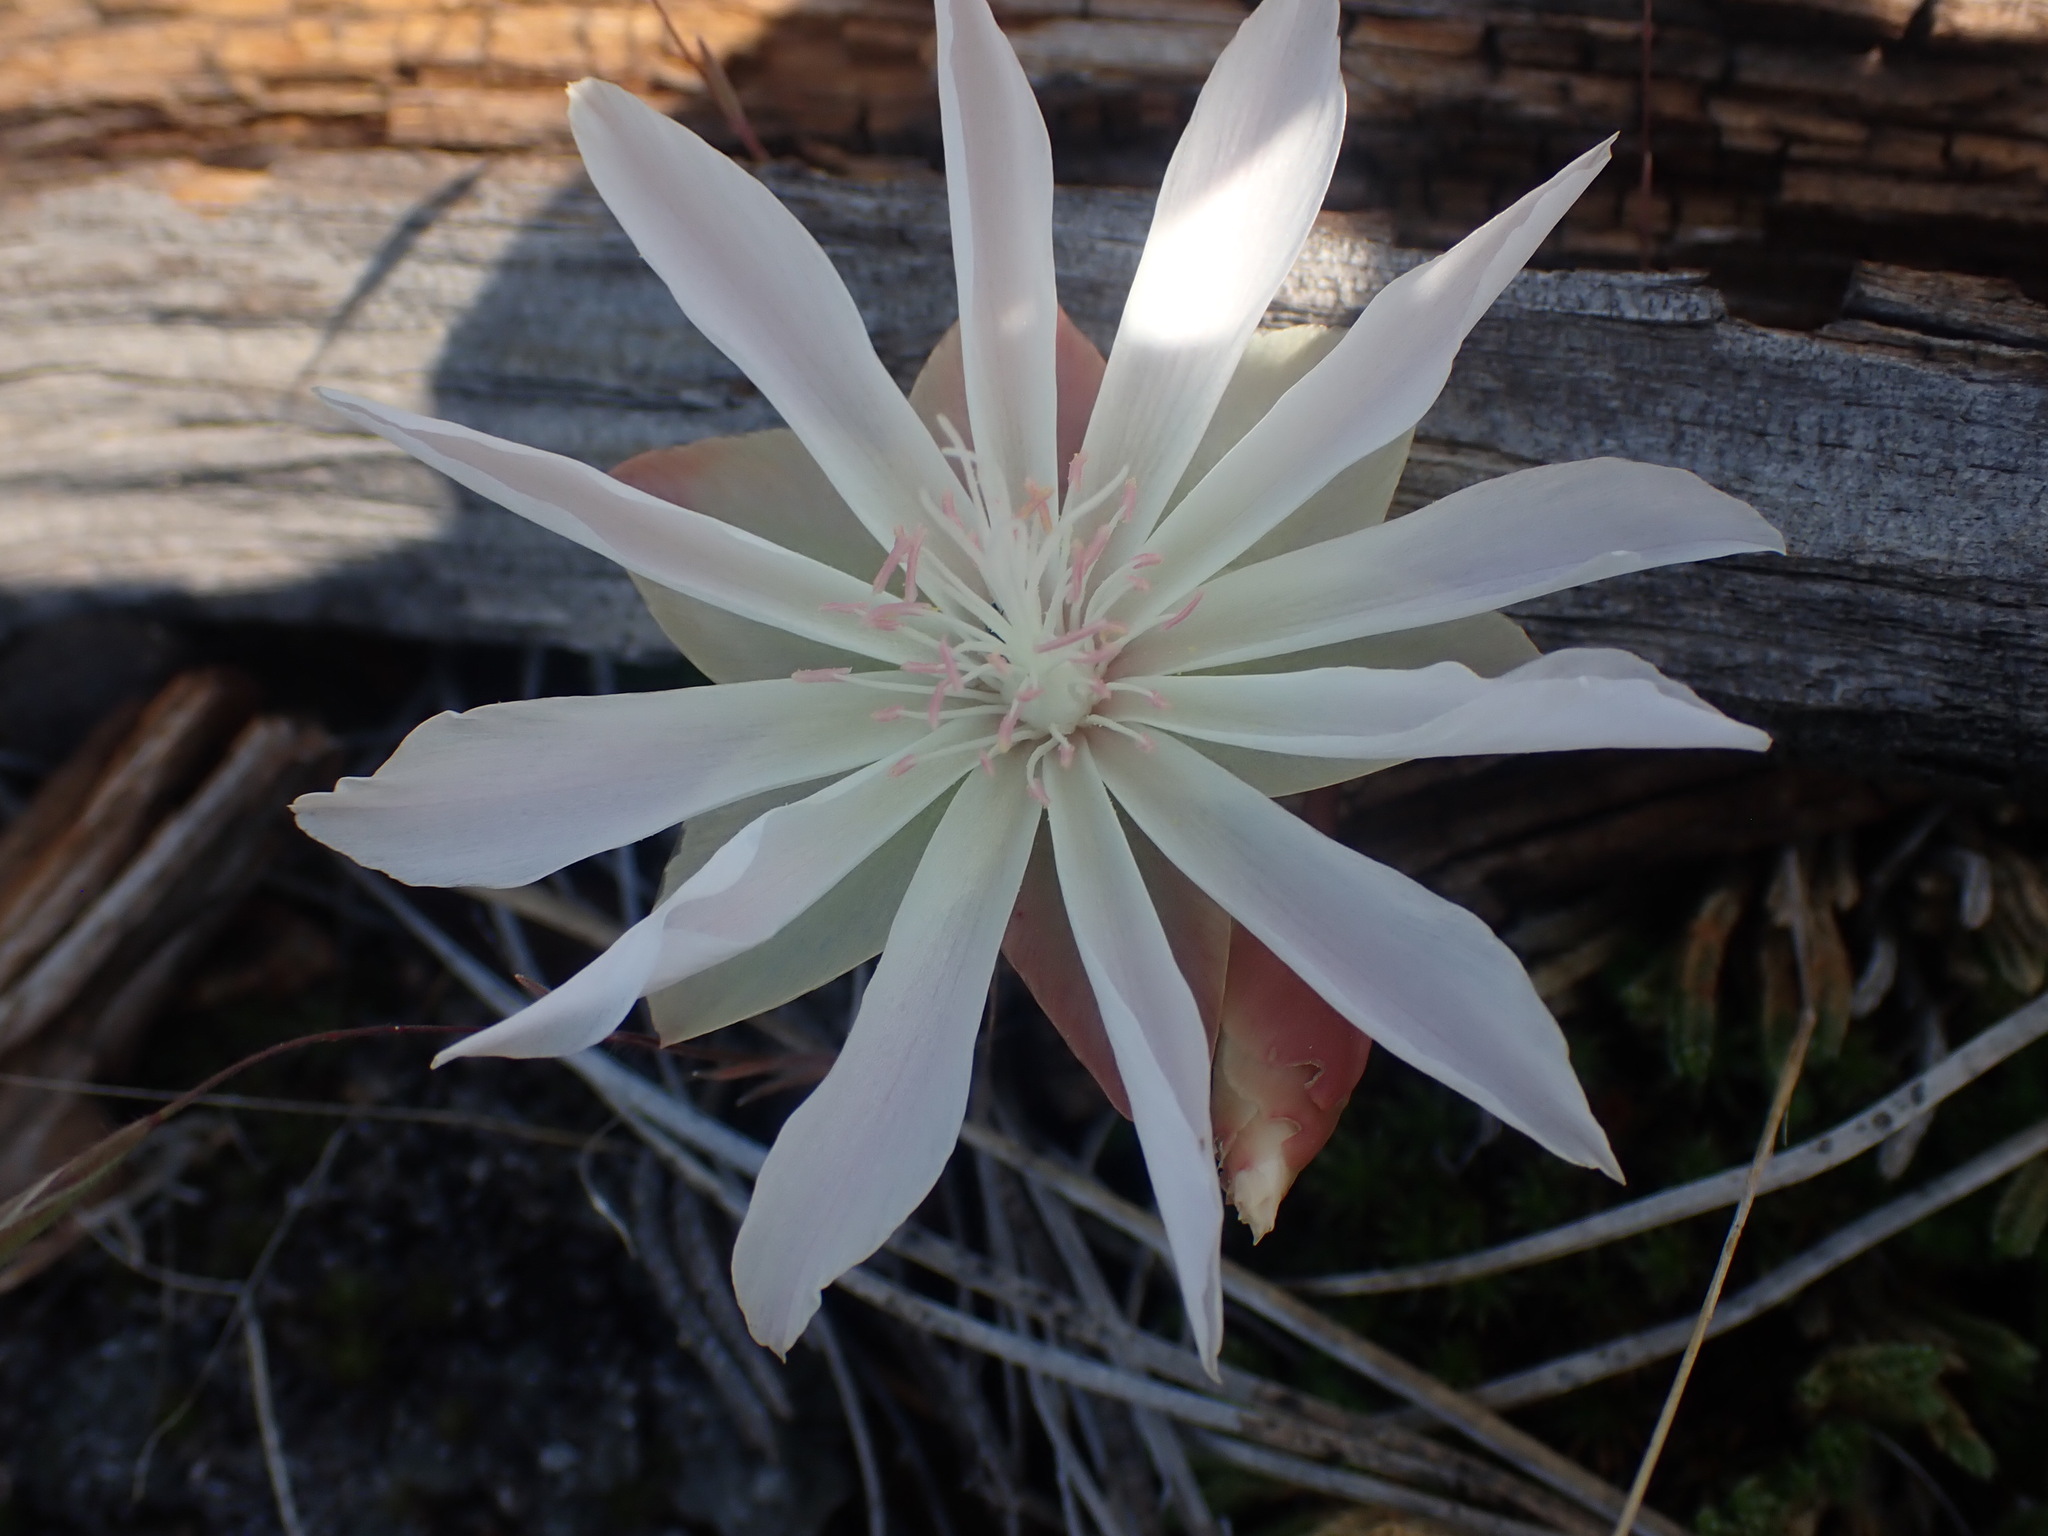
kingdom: Plantae
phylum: Tracheophyta
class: Magnoliopsida
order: Caryophyllales
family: Montiaceae
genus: Lewisia
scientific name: Lewisia rediviva
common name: Bitter-root
